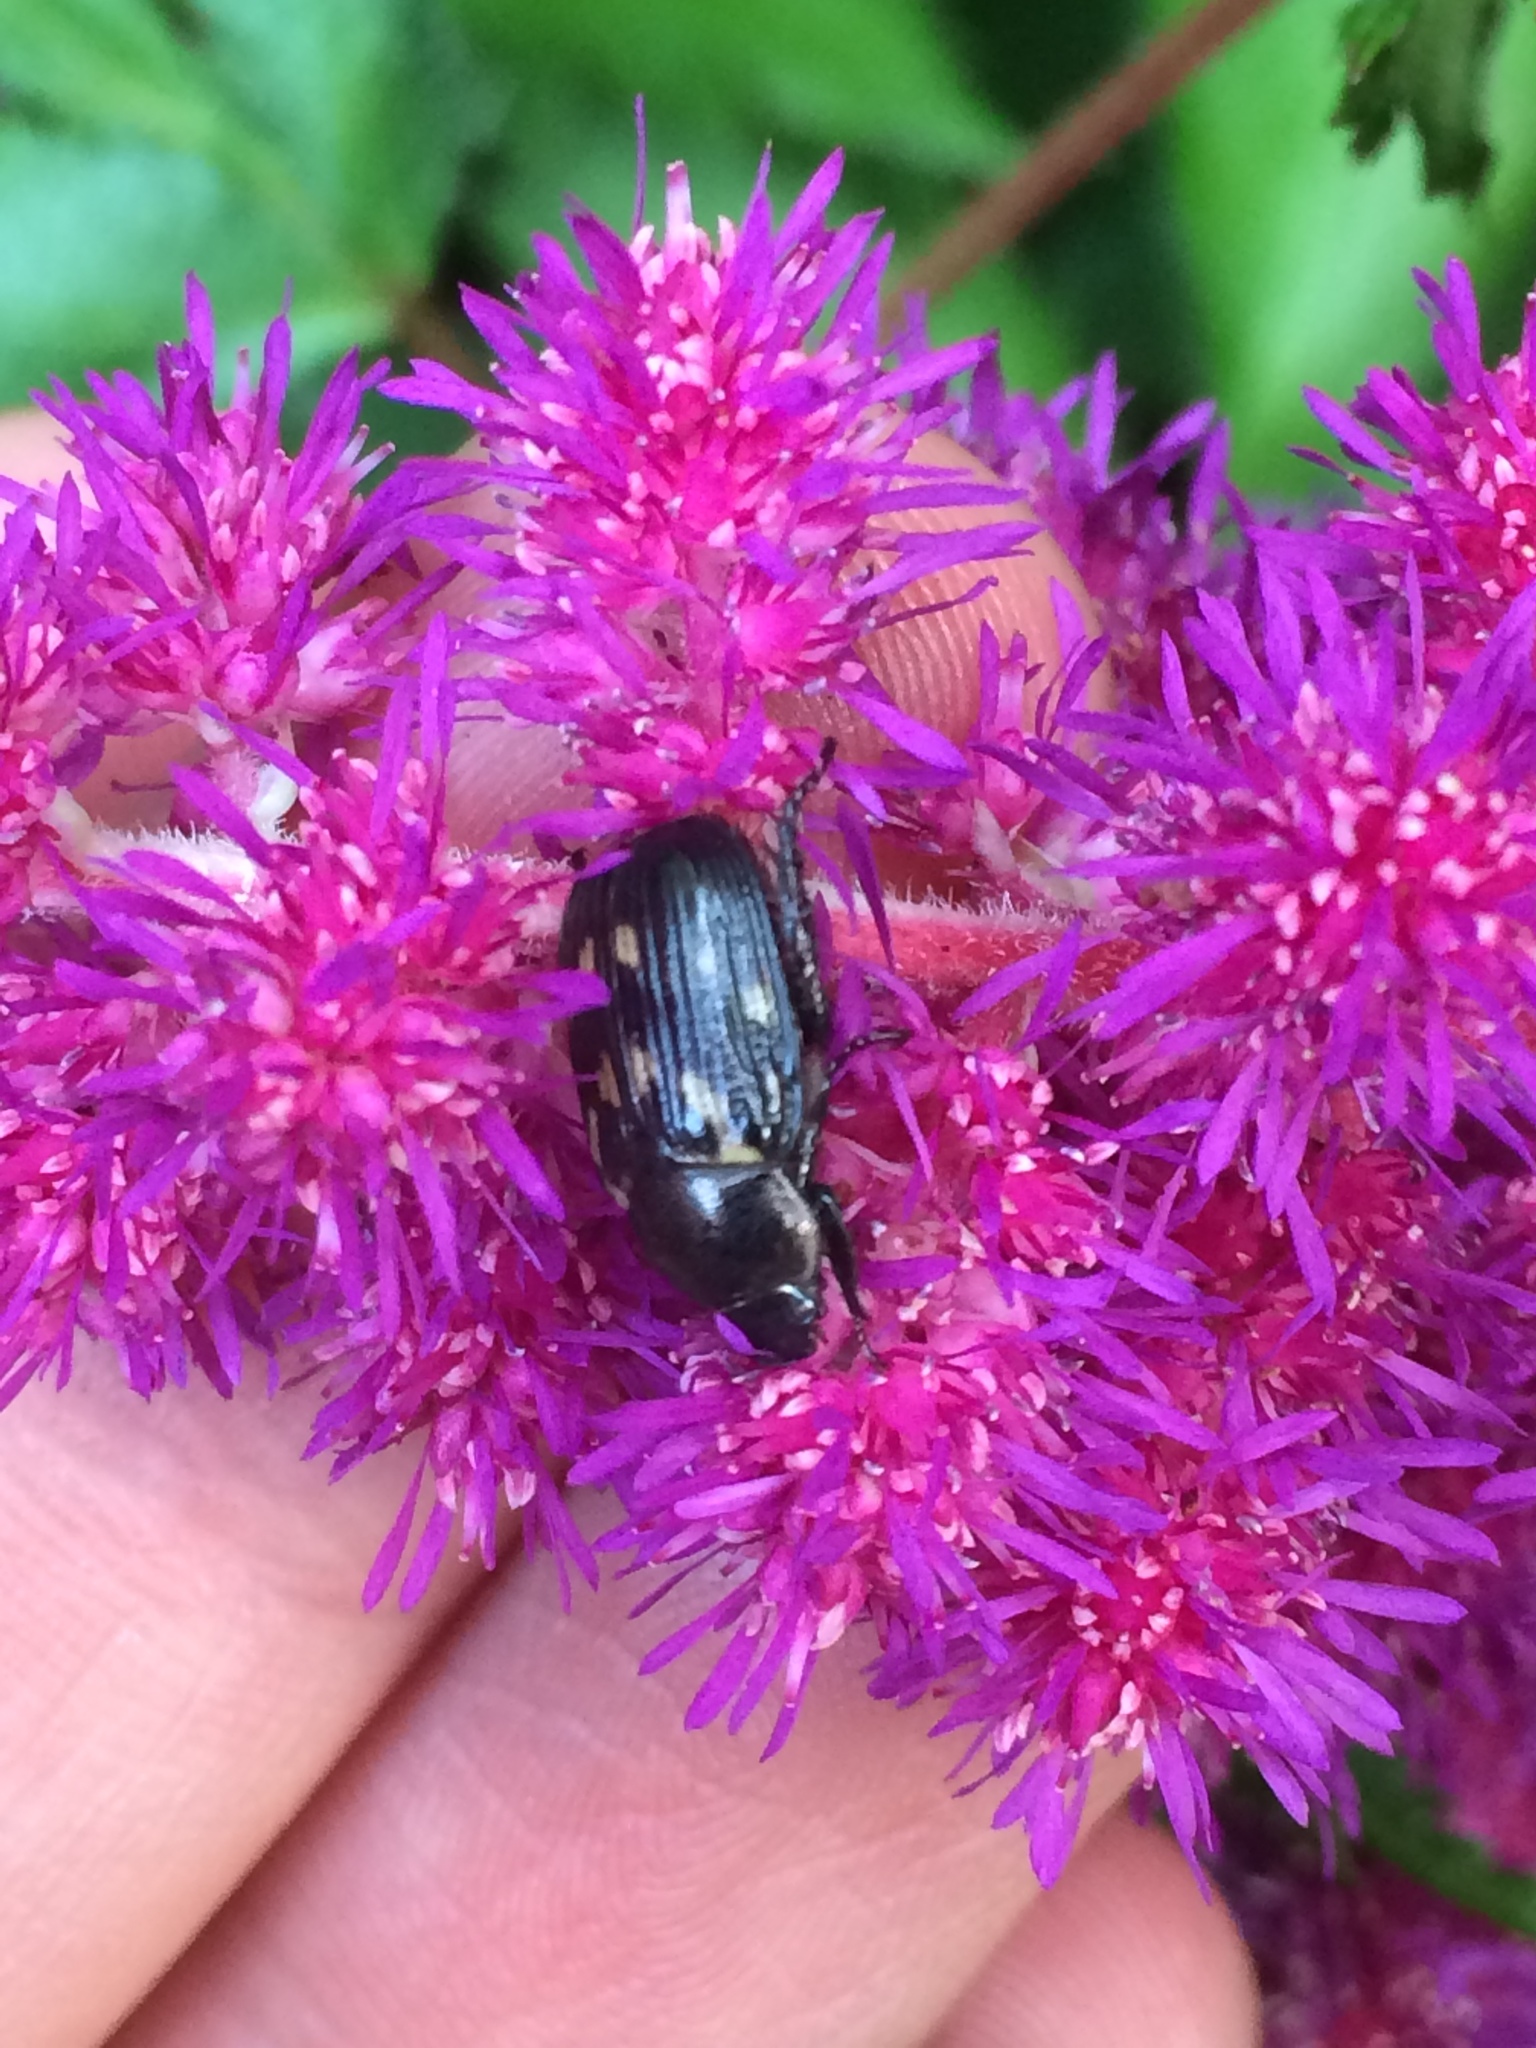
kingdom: Animalia
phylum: Arthropoda
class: Insecta
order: Coleoptera
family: Scarabaeidae
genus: Exomala
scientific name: Exomala orientalis
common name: Oriental beetle
